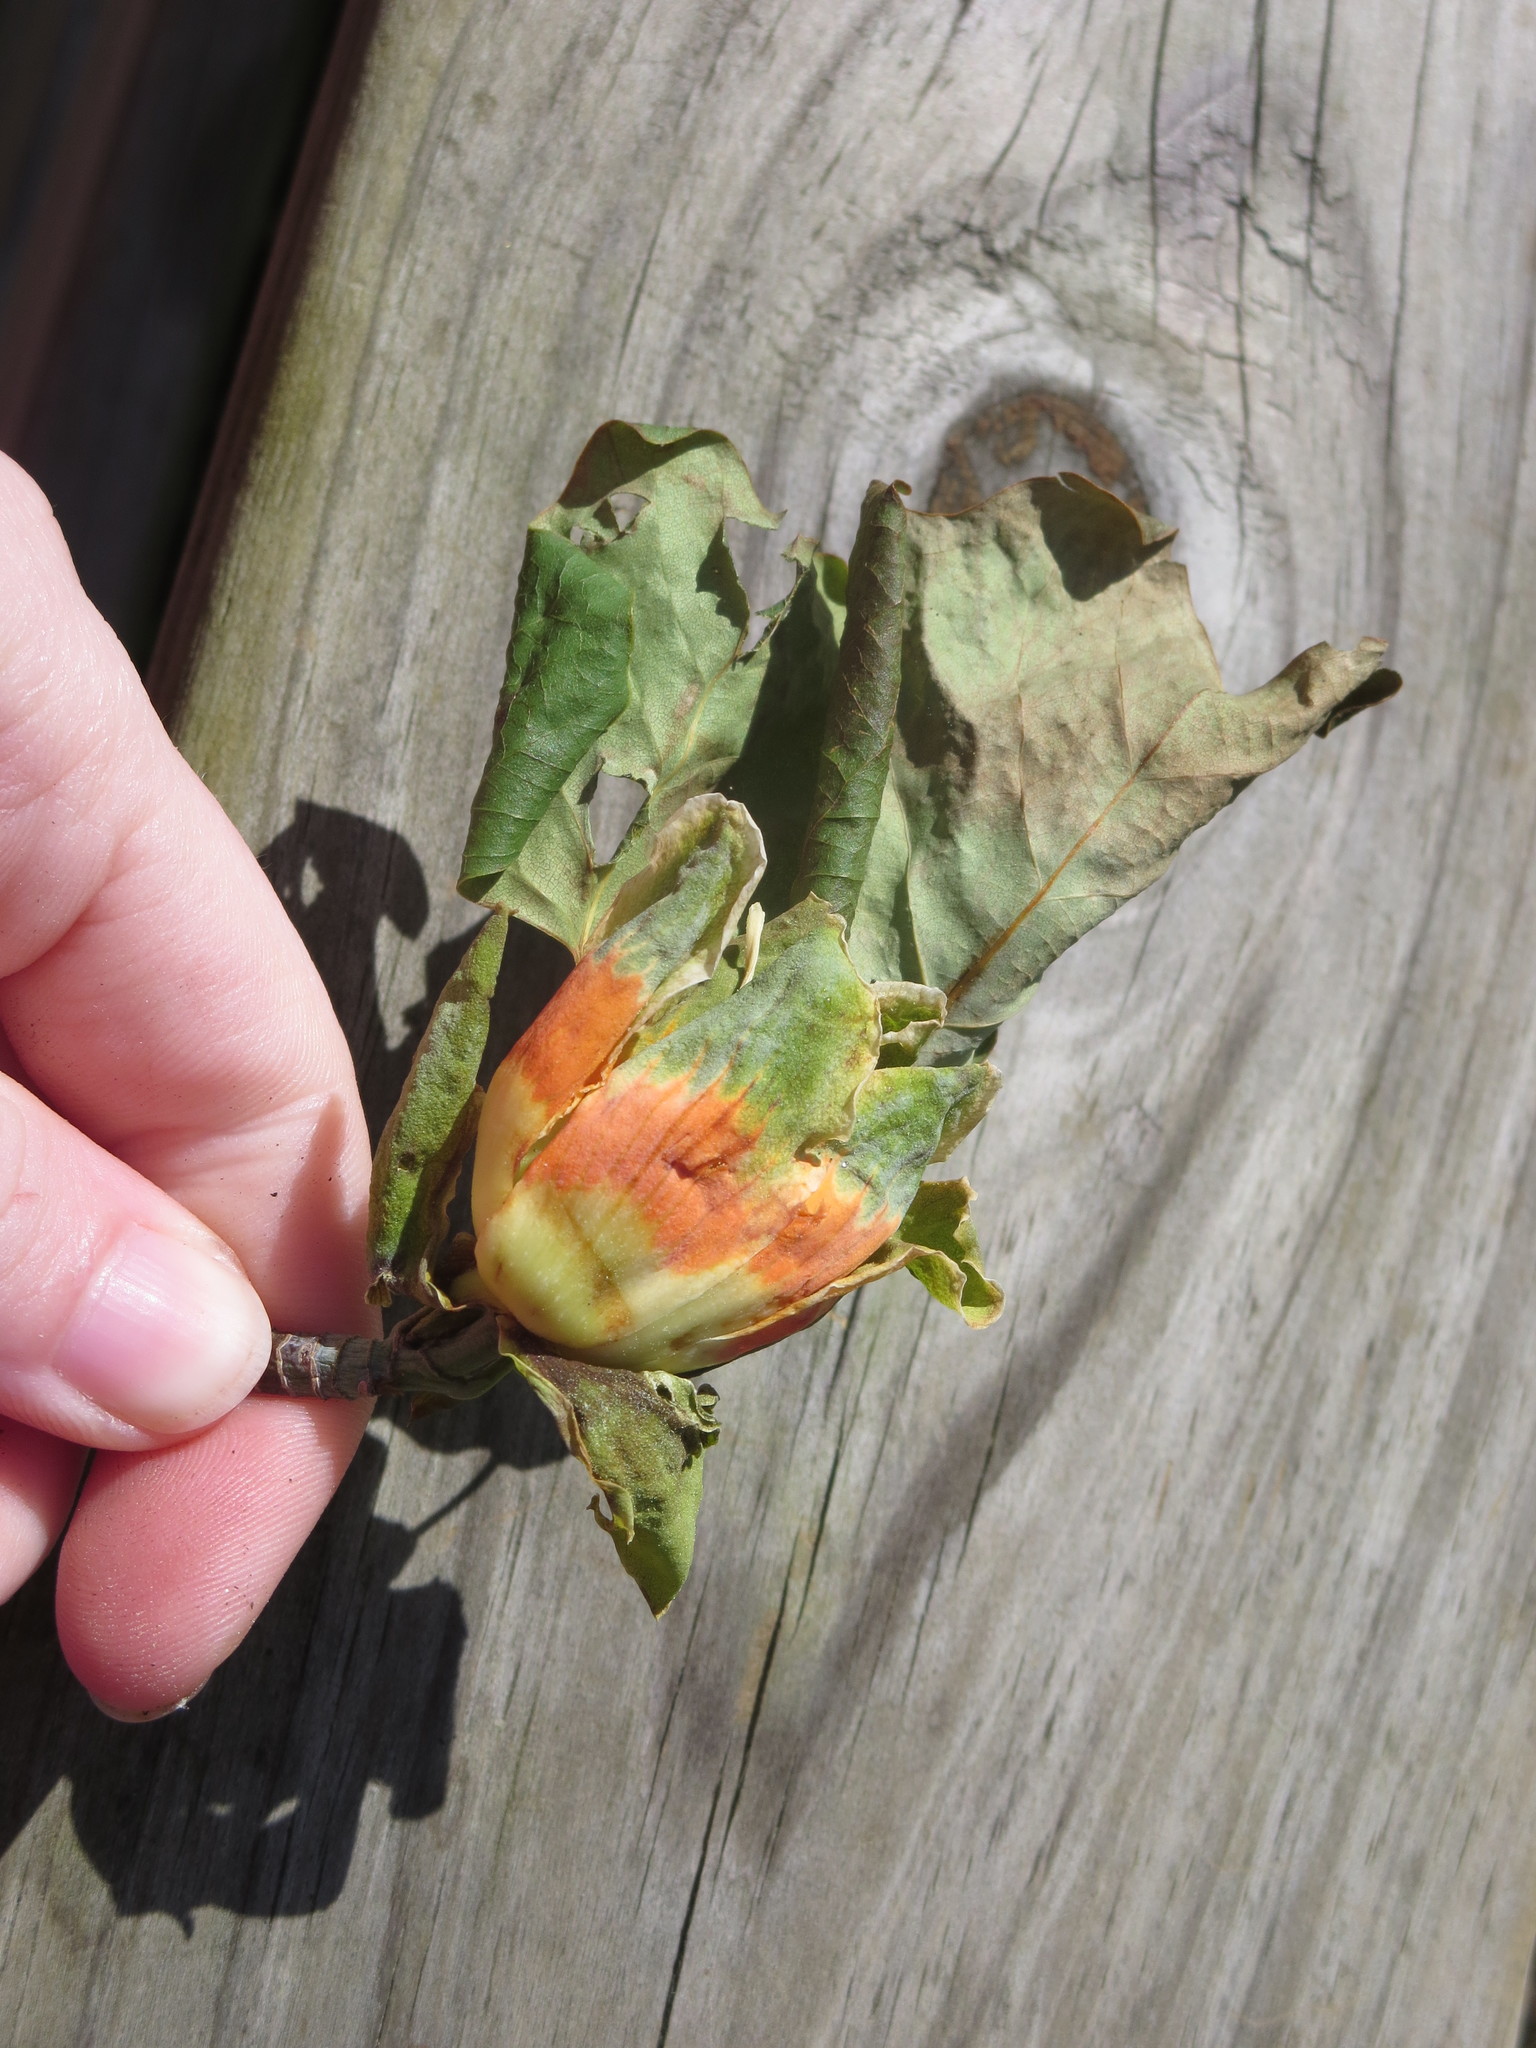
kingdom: Plantae
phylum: Tracheophyta
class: Magnoliopsida
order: Magnoliales
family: Magnoliaceae
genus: Liriodendron
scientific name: Liriodendron tulipifera
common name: Tulip tree
